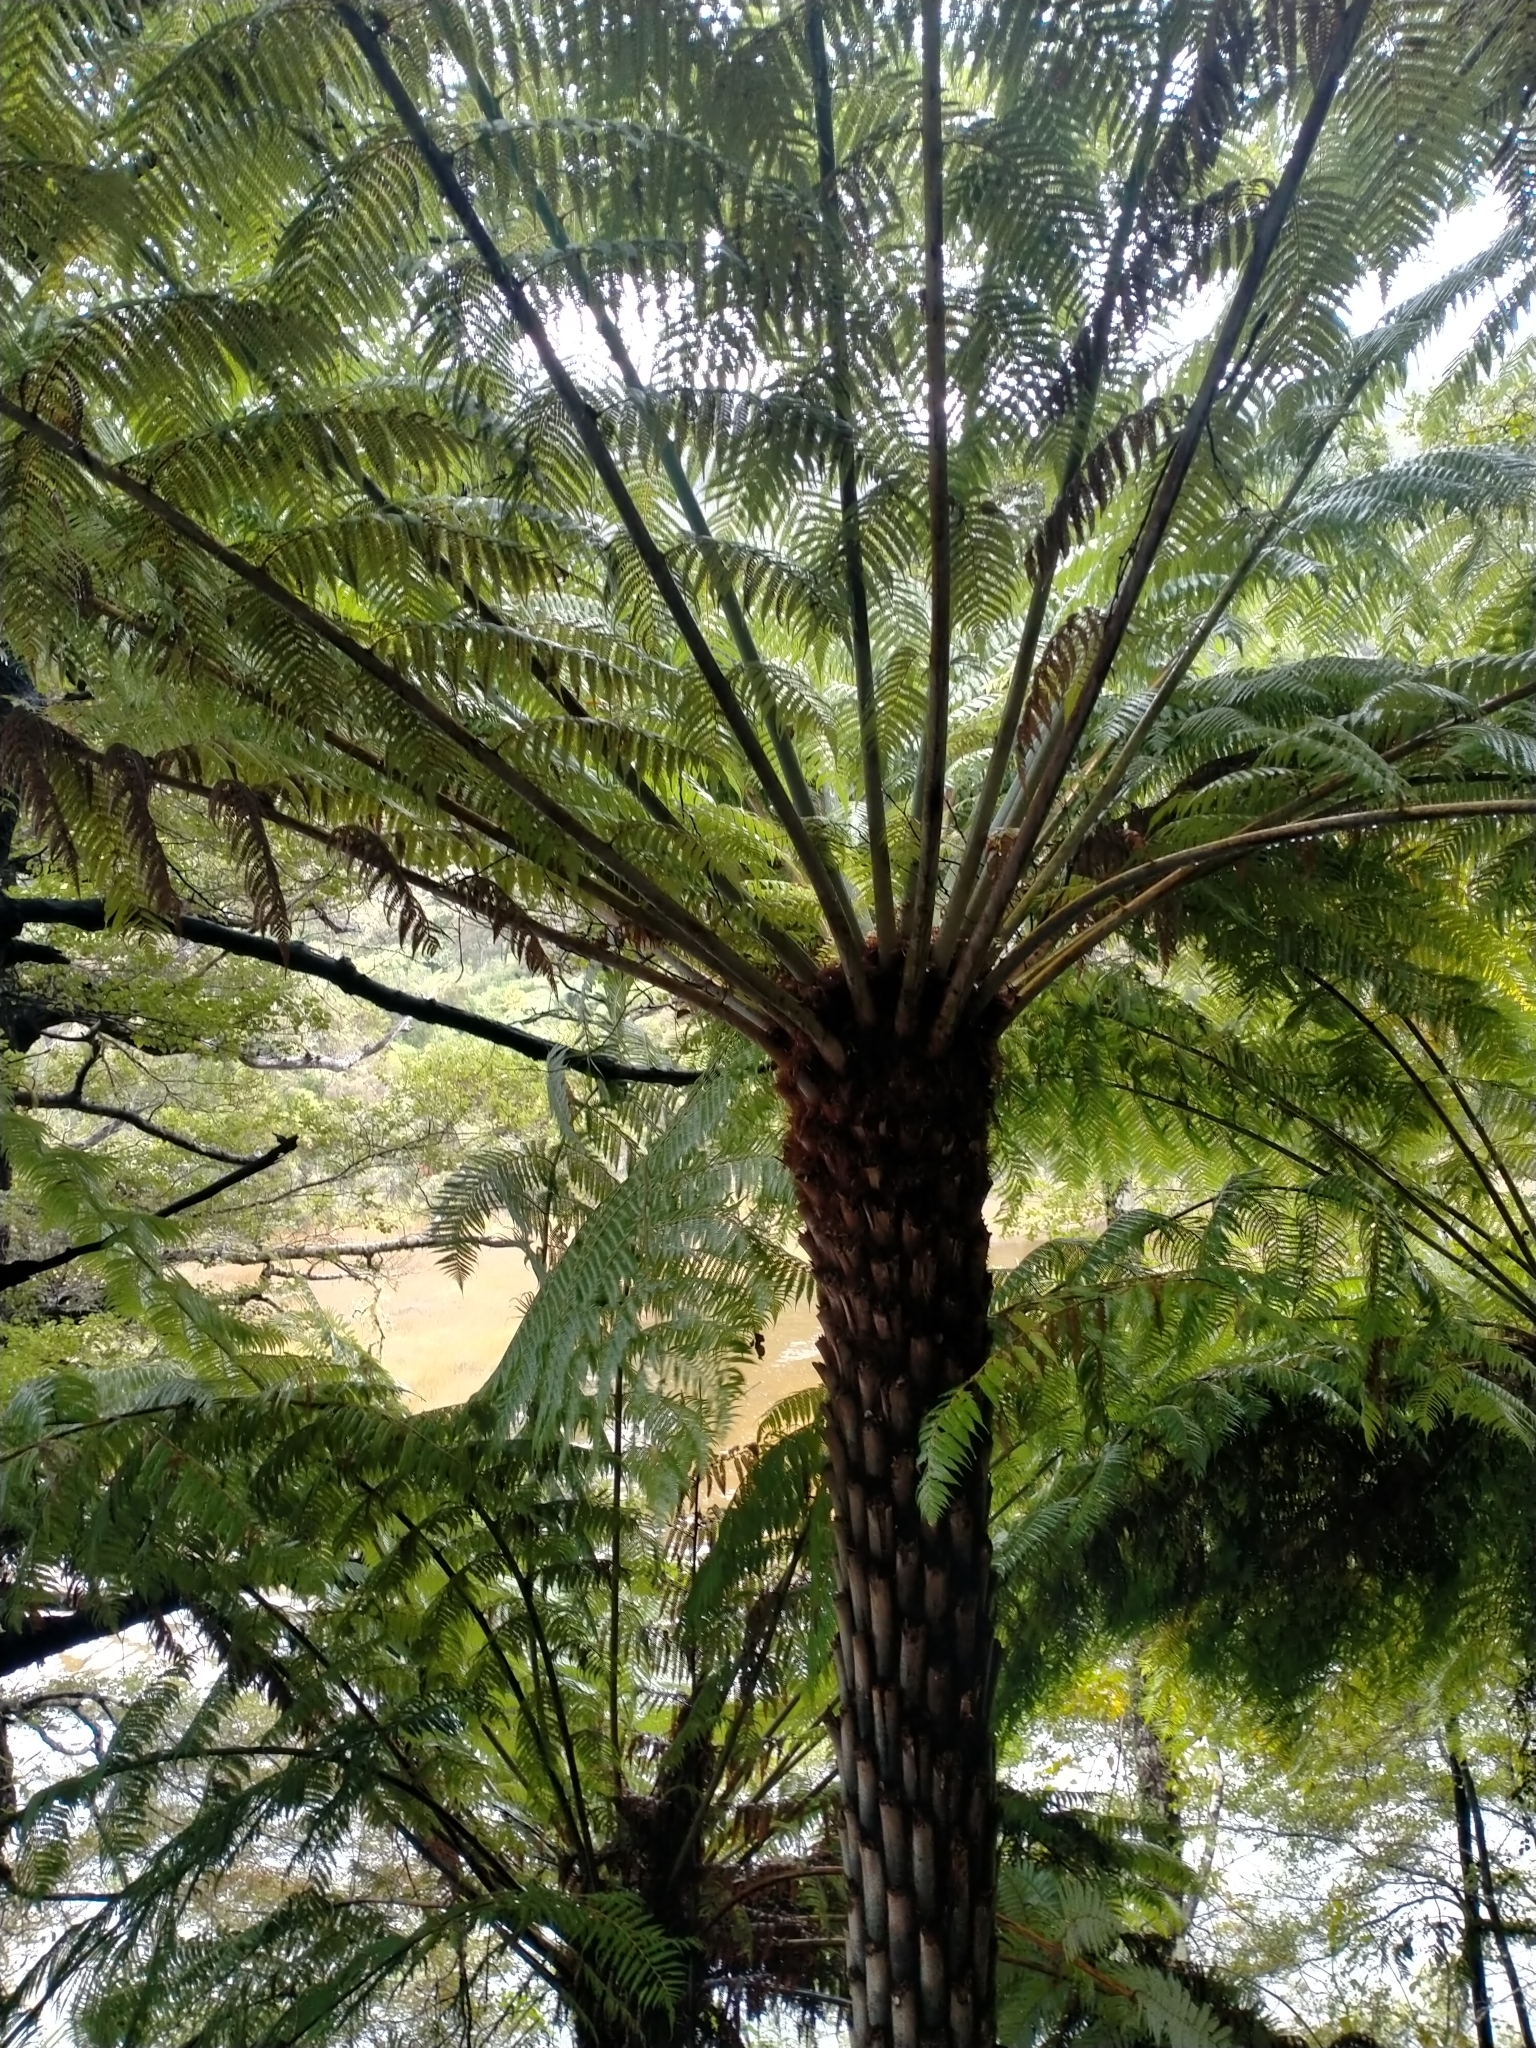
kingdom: Plantae
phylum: Tracheophyta
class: Polypodiopsida
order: Cyatheales
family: Cyatheaceae
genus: Alsophila
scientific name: Alsophila dealbata
